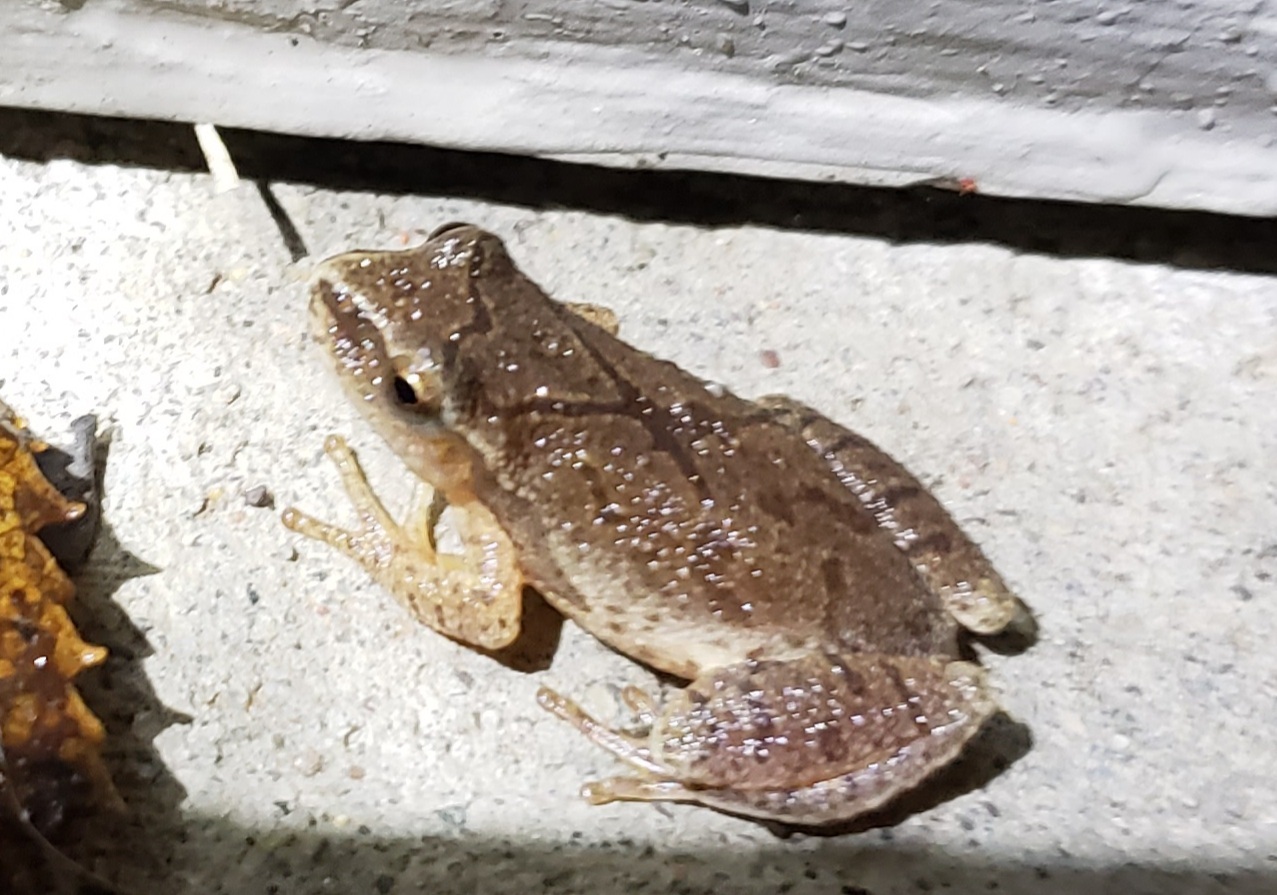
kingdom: Animalia
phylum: Chordata
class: Amphibia
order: Anura
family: Hylidae
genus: Pseudacris
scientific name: Pseudacris crucifer
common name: Spring peeper
